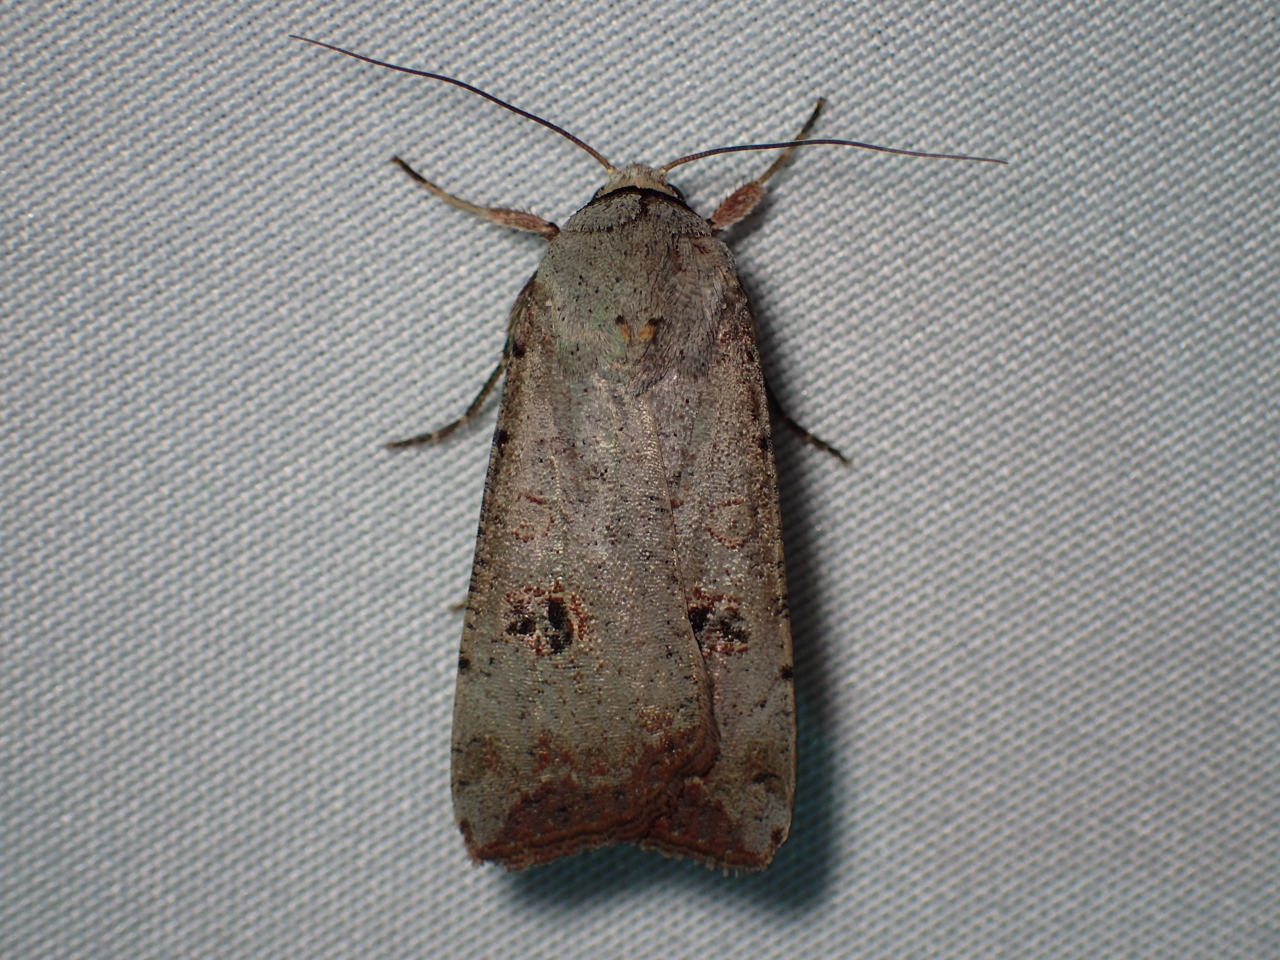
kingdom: Animalia
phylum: Arthropoda
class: Insecta
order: Lepidoptera
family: Noctuidae
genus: Anicla
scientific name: Anicla infecta
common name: Green cutworm
